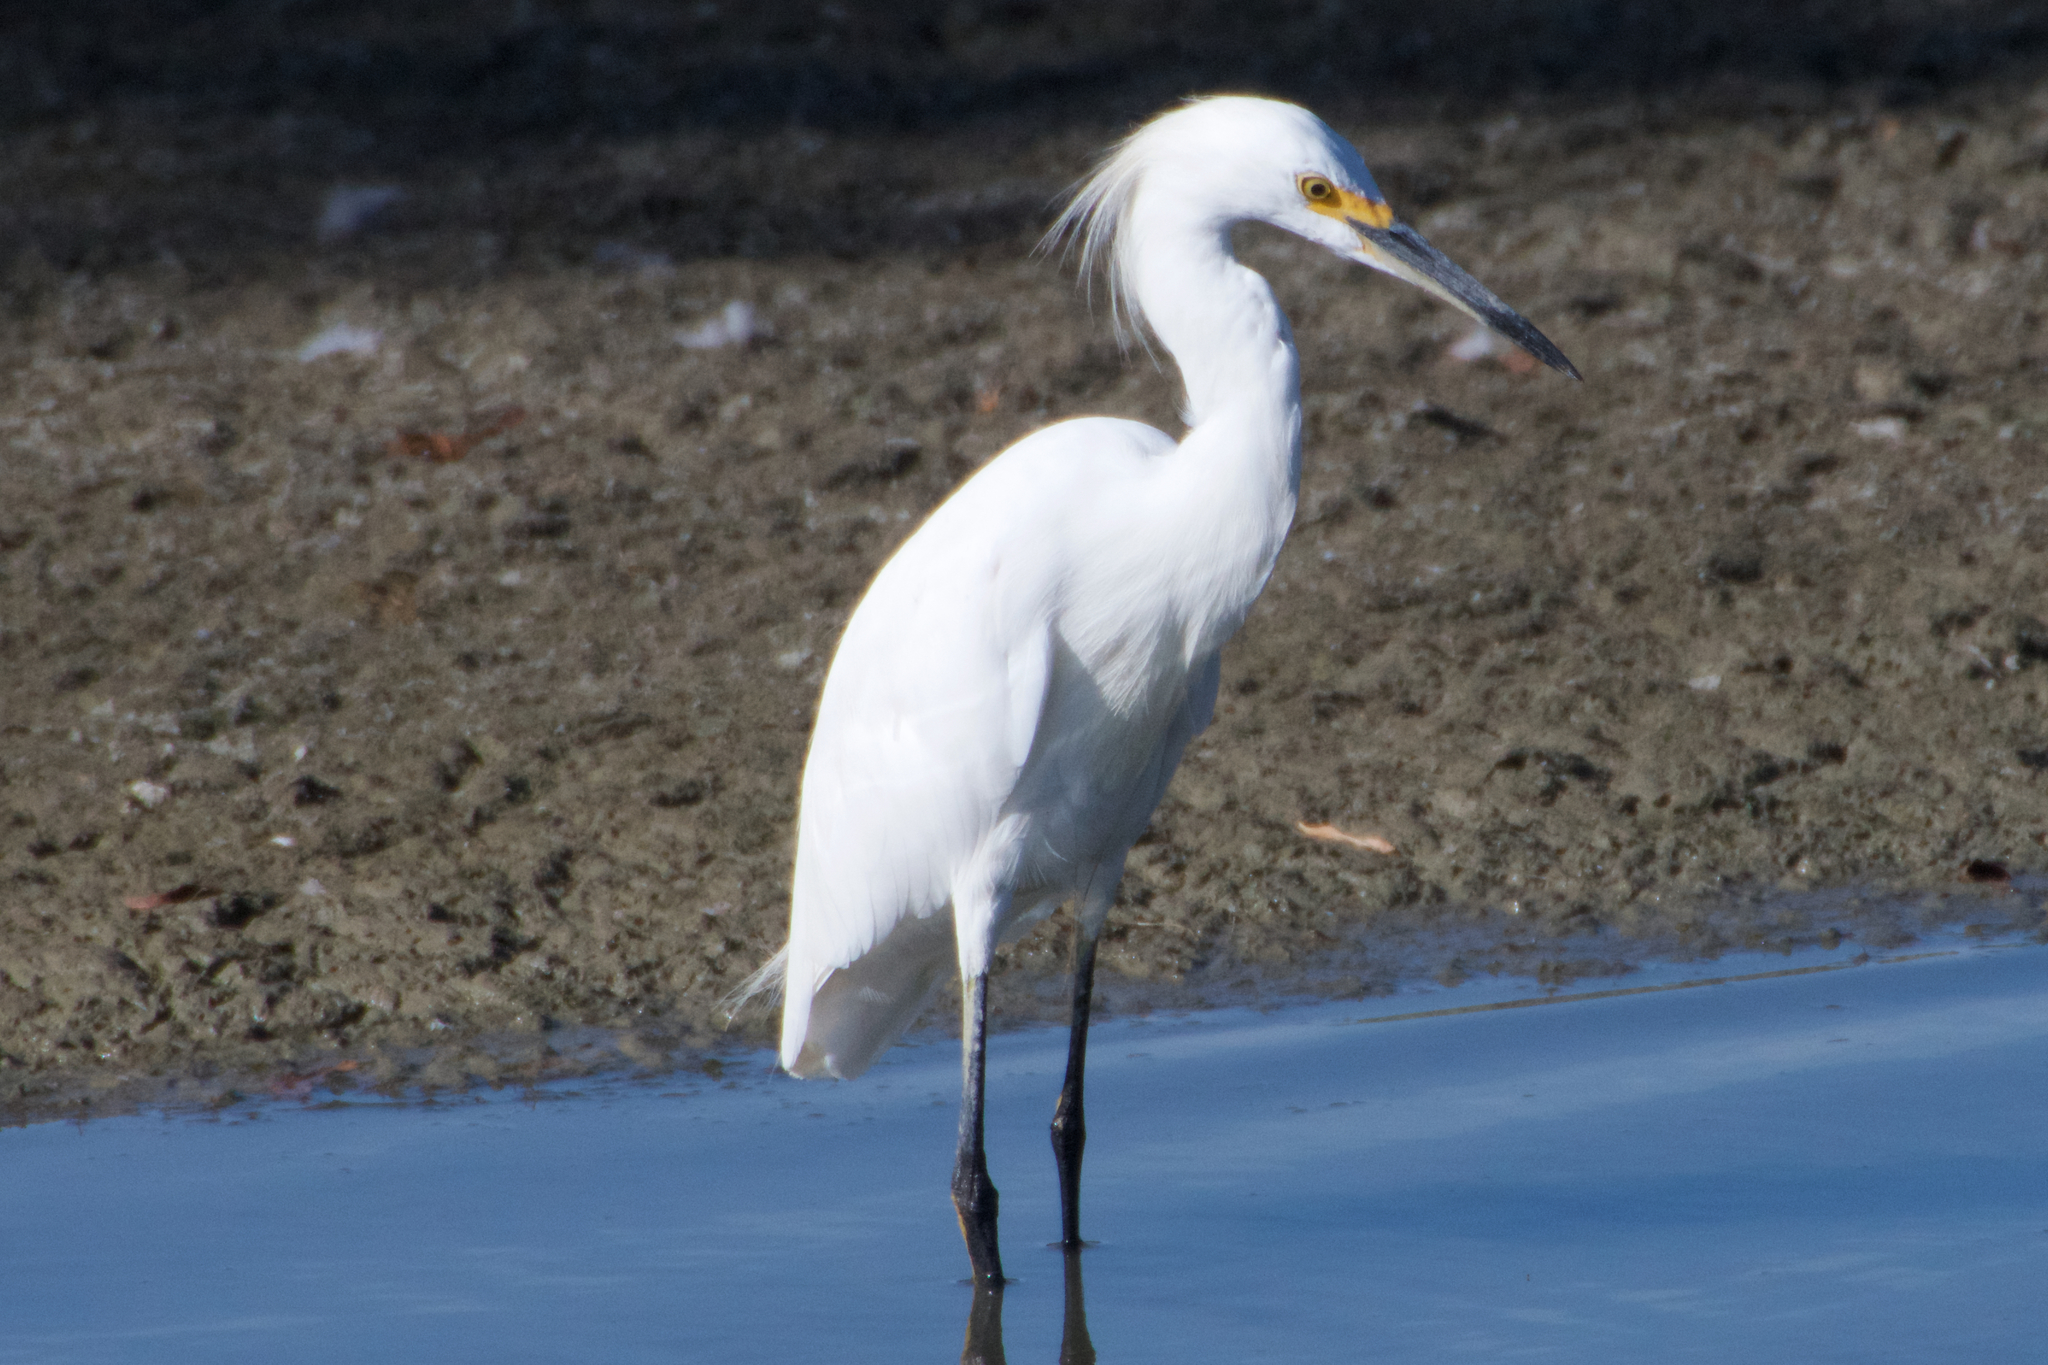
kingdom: Animalia
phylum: Chordata
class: Aves
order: Pelecaniformes
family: Ardeidae
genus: Egretta
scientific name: Egretta thula
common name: Snowy egret
